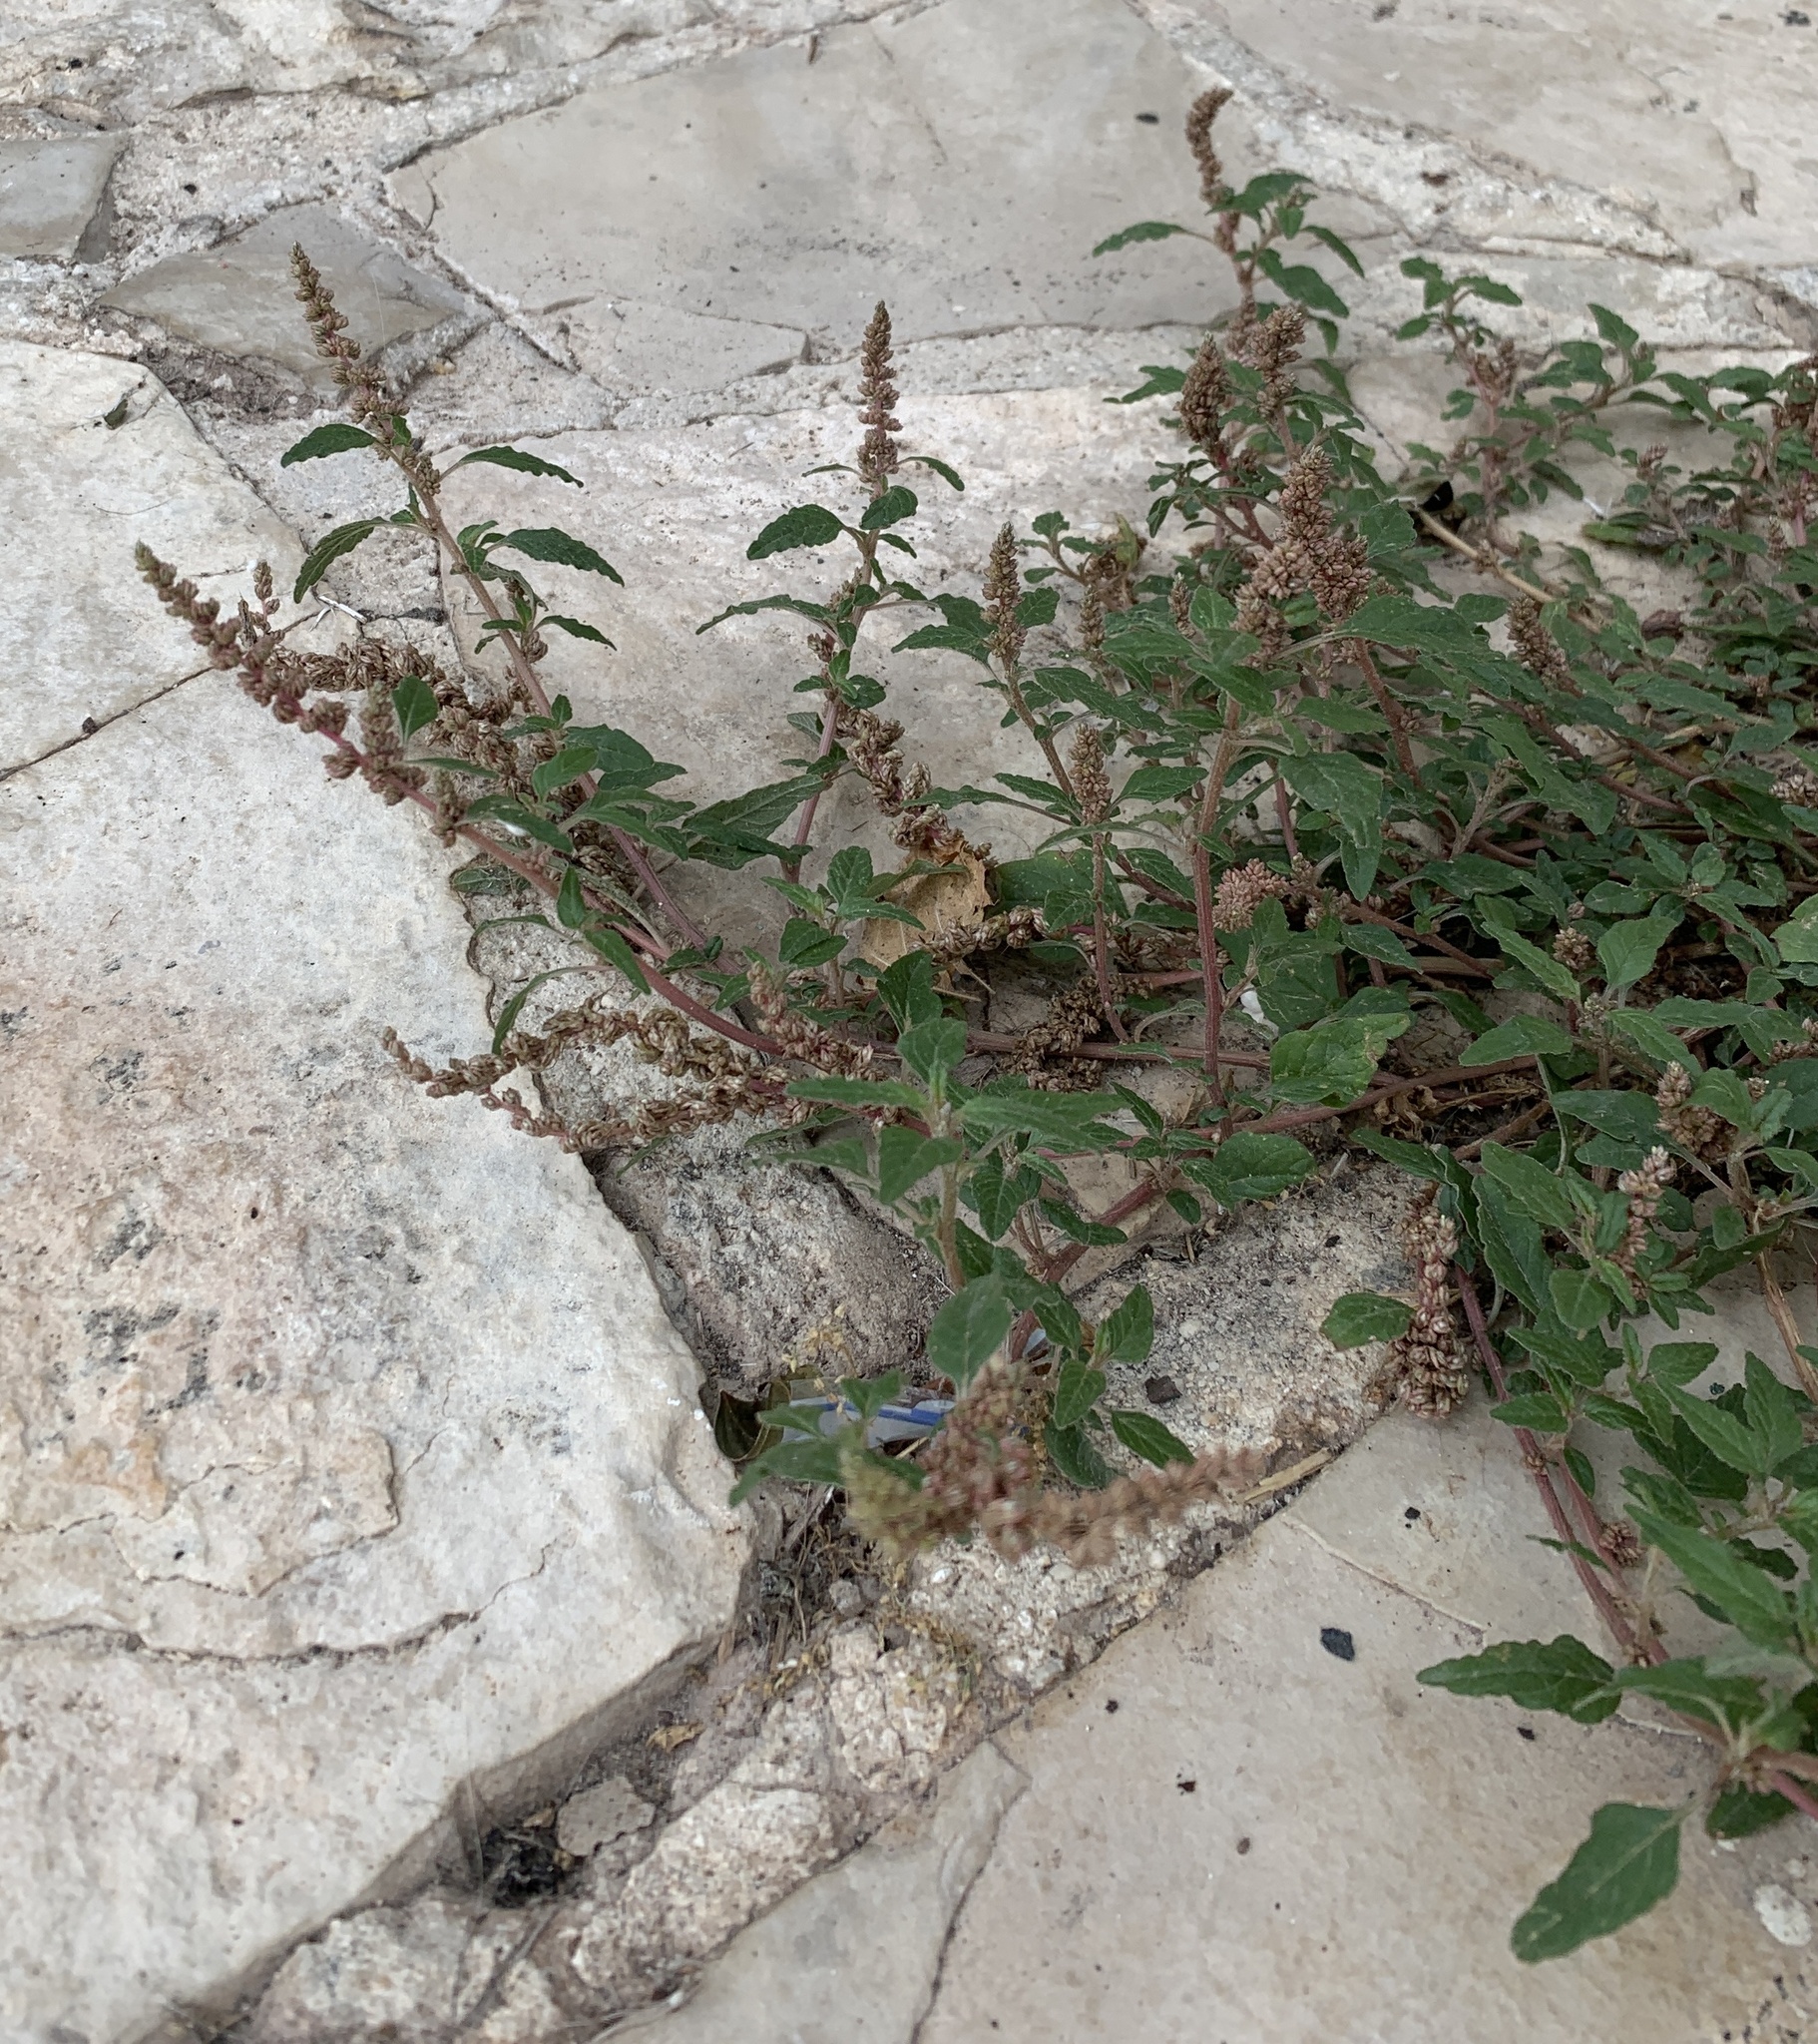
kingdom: Plantae
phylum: Tracheophyta
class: Magnoliopsida
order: Caryophyllales
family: Amaranthaceae
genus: Amaranthus
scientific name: Amaranthus deflexus
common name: Perennial pigweed
